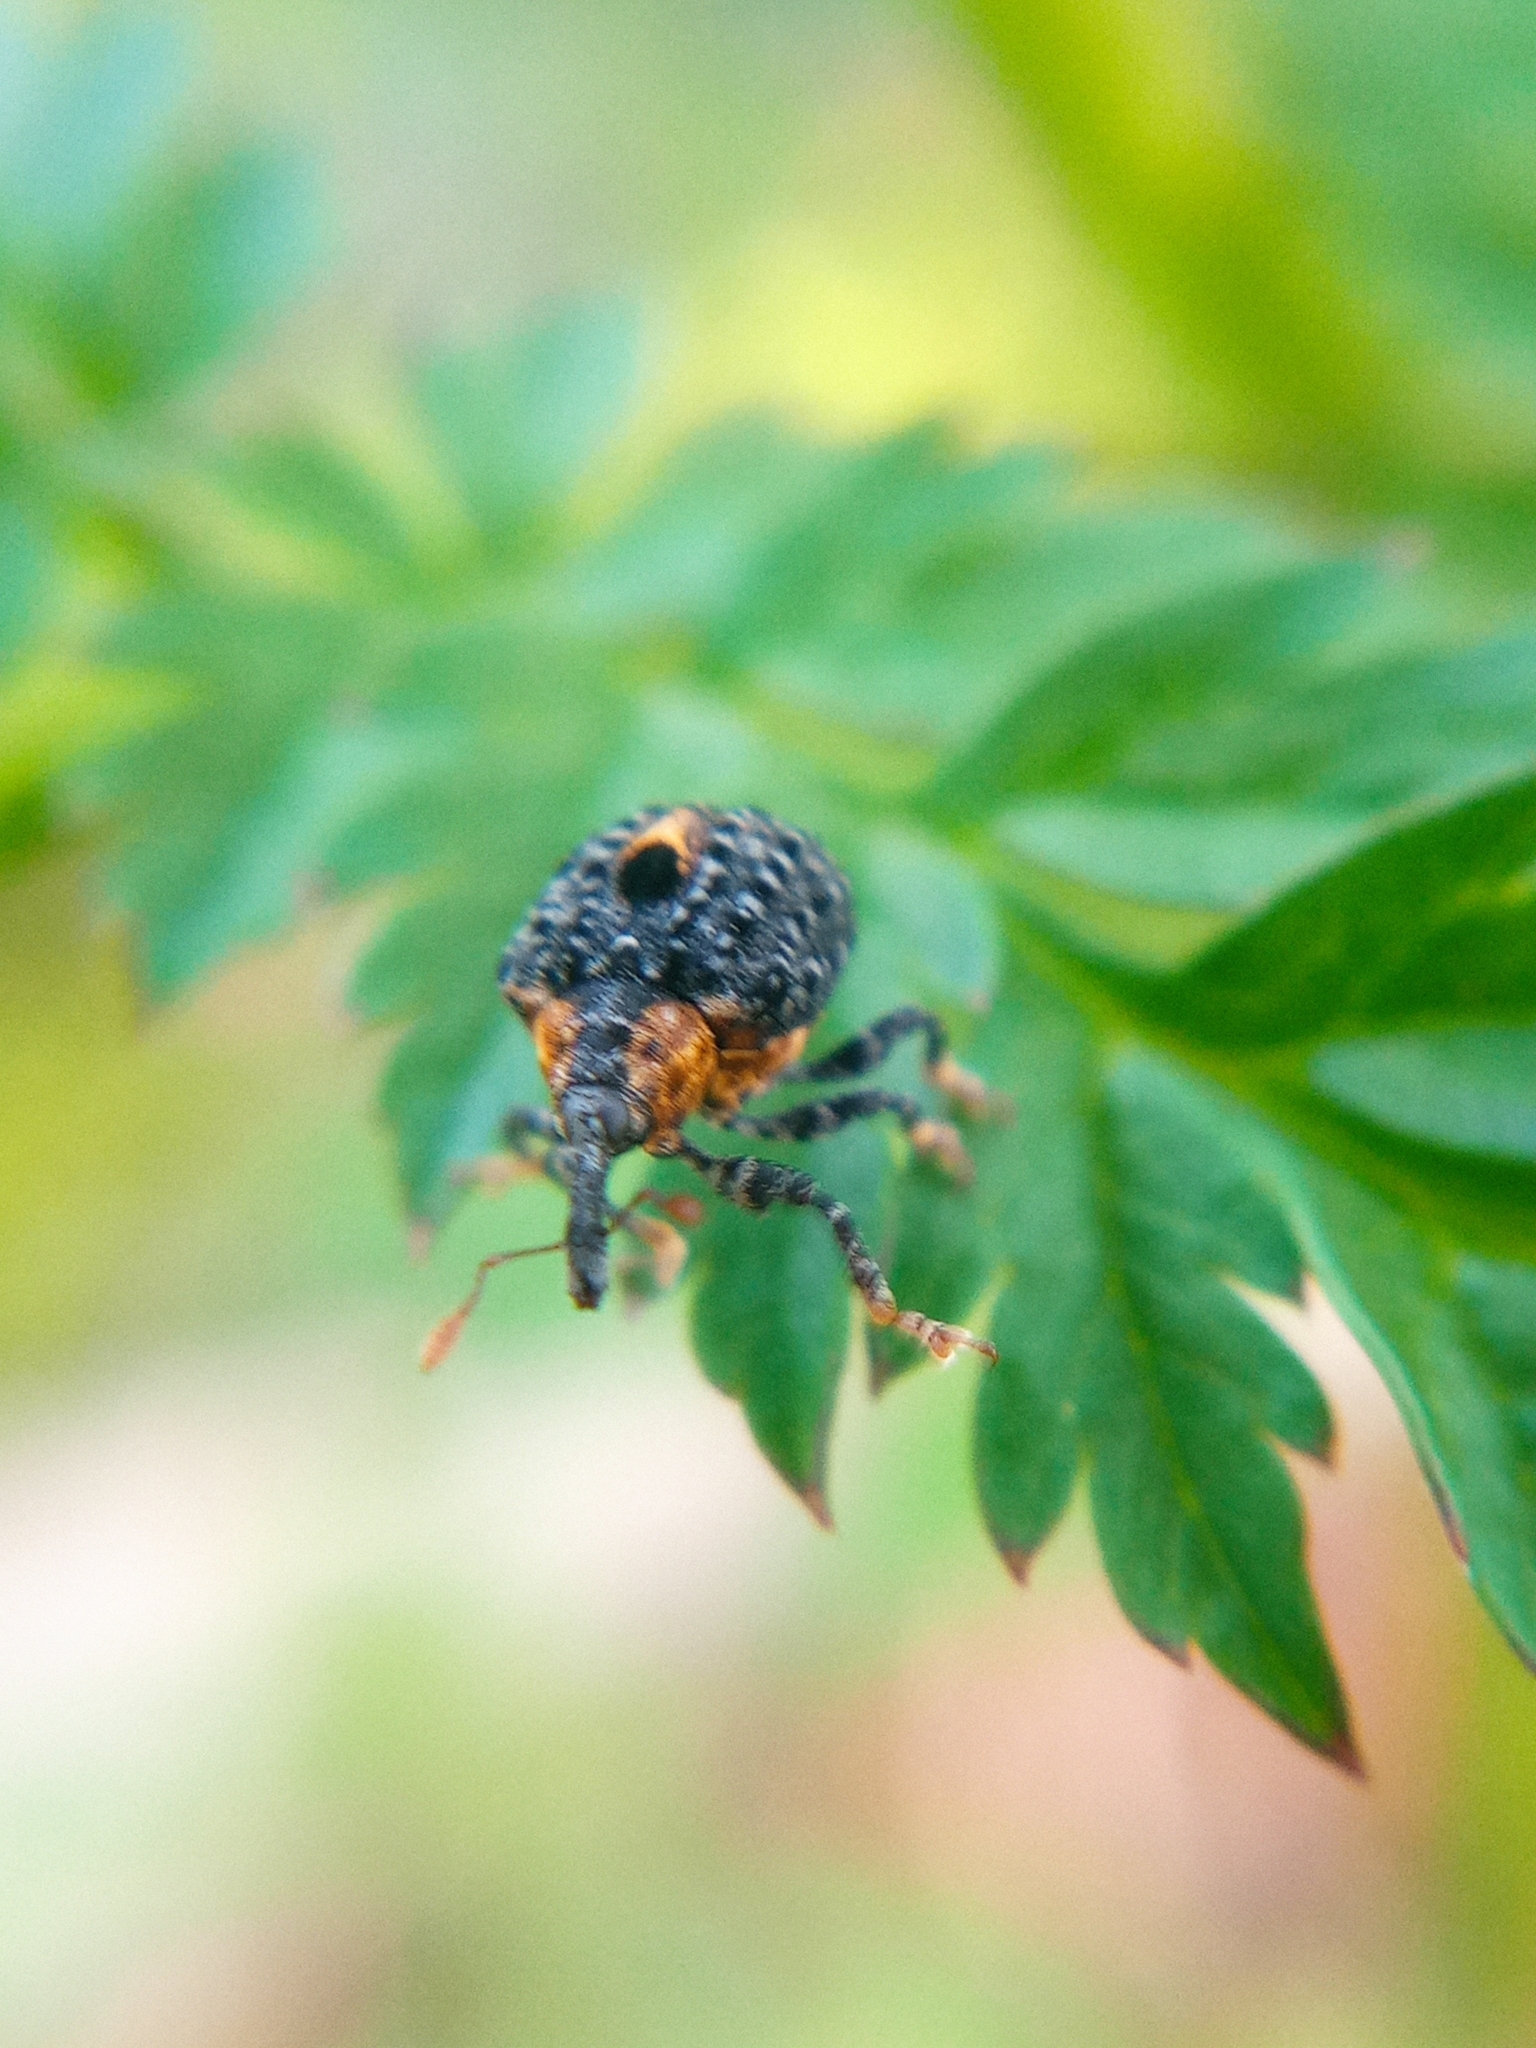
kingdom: Animalia
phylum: Arthropoda
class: Insecta
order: Coleoptera
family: Curculionidae
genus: Cionus
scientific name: Cionus tuberculosus
